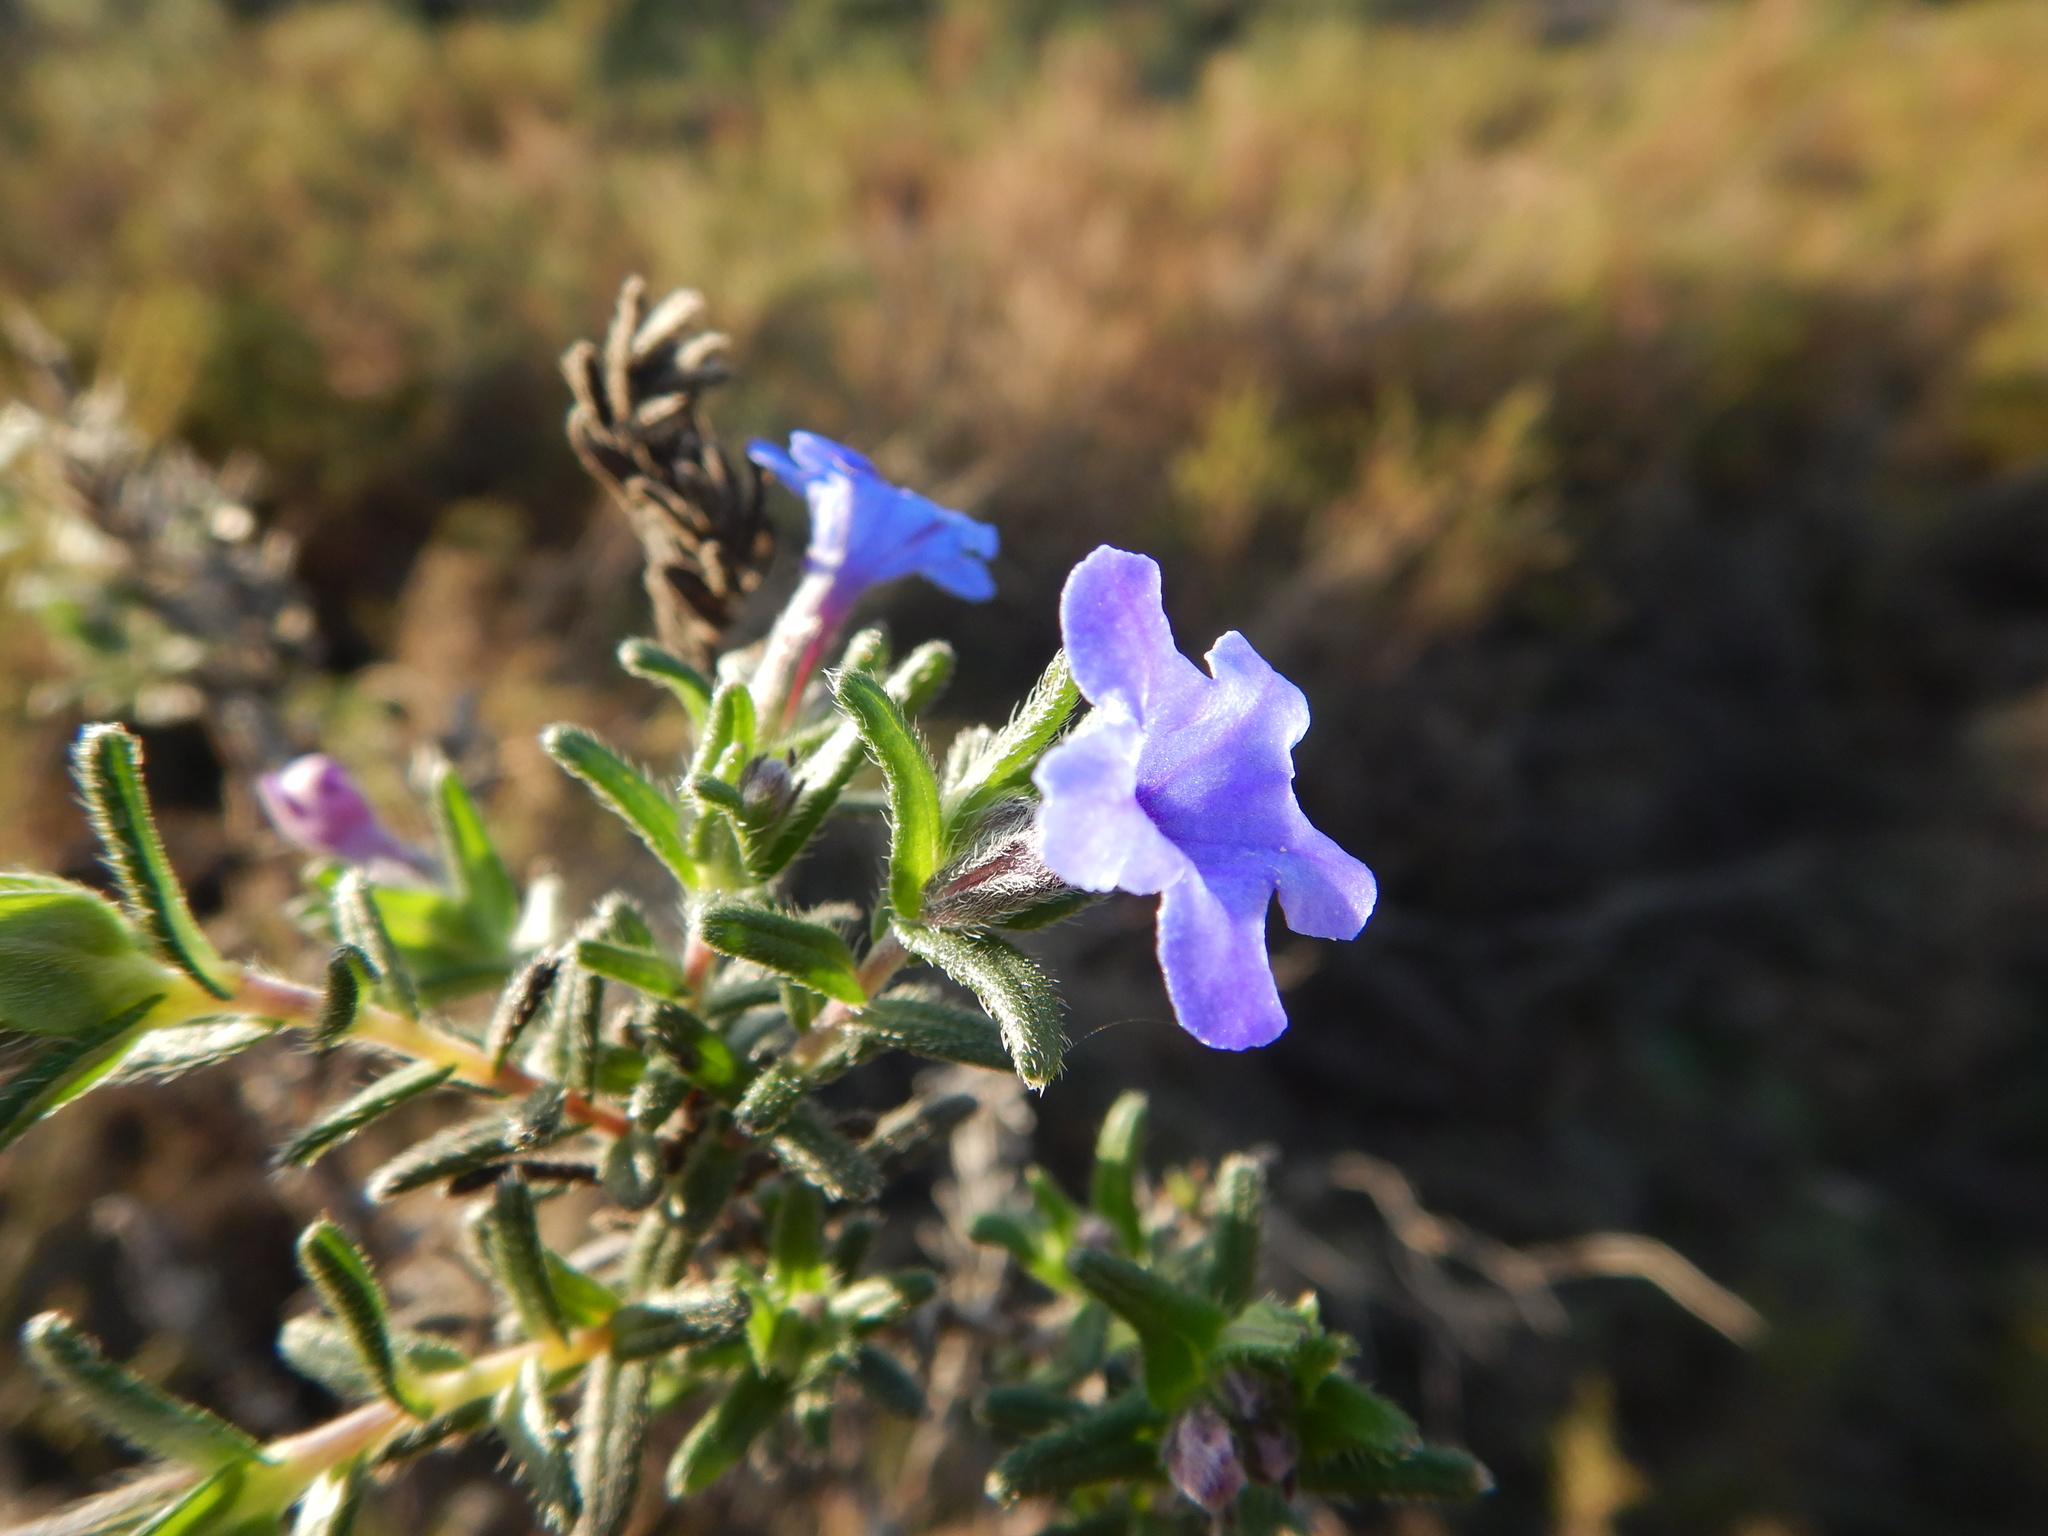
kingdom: Plantae
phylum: Tracheophyta
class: Magnoliopsida
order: Boraginales
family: Boraginaceae
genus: Glandora
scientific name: Glandora prostrata
